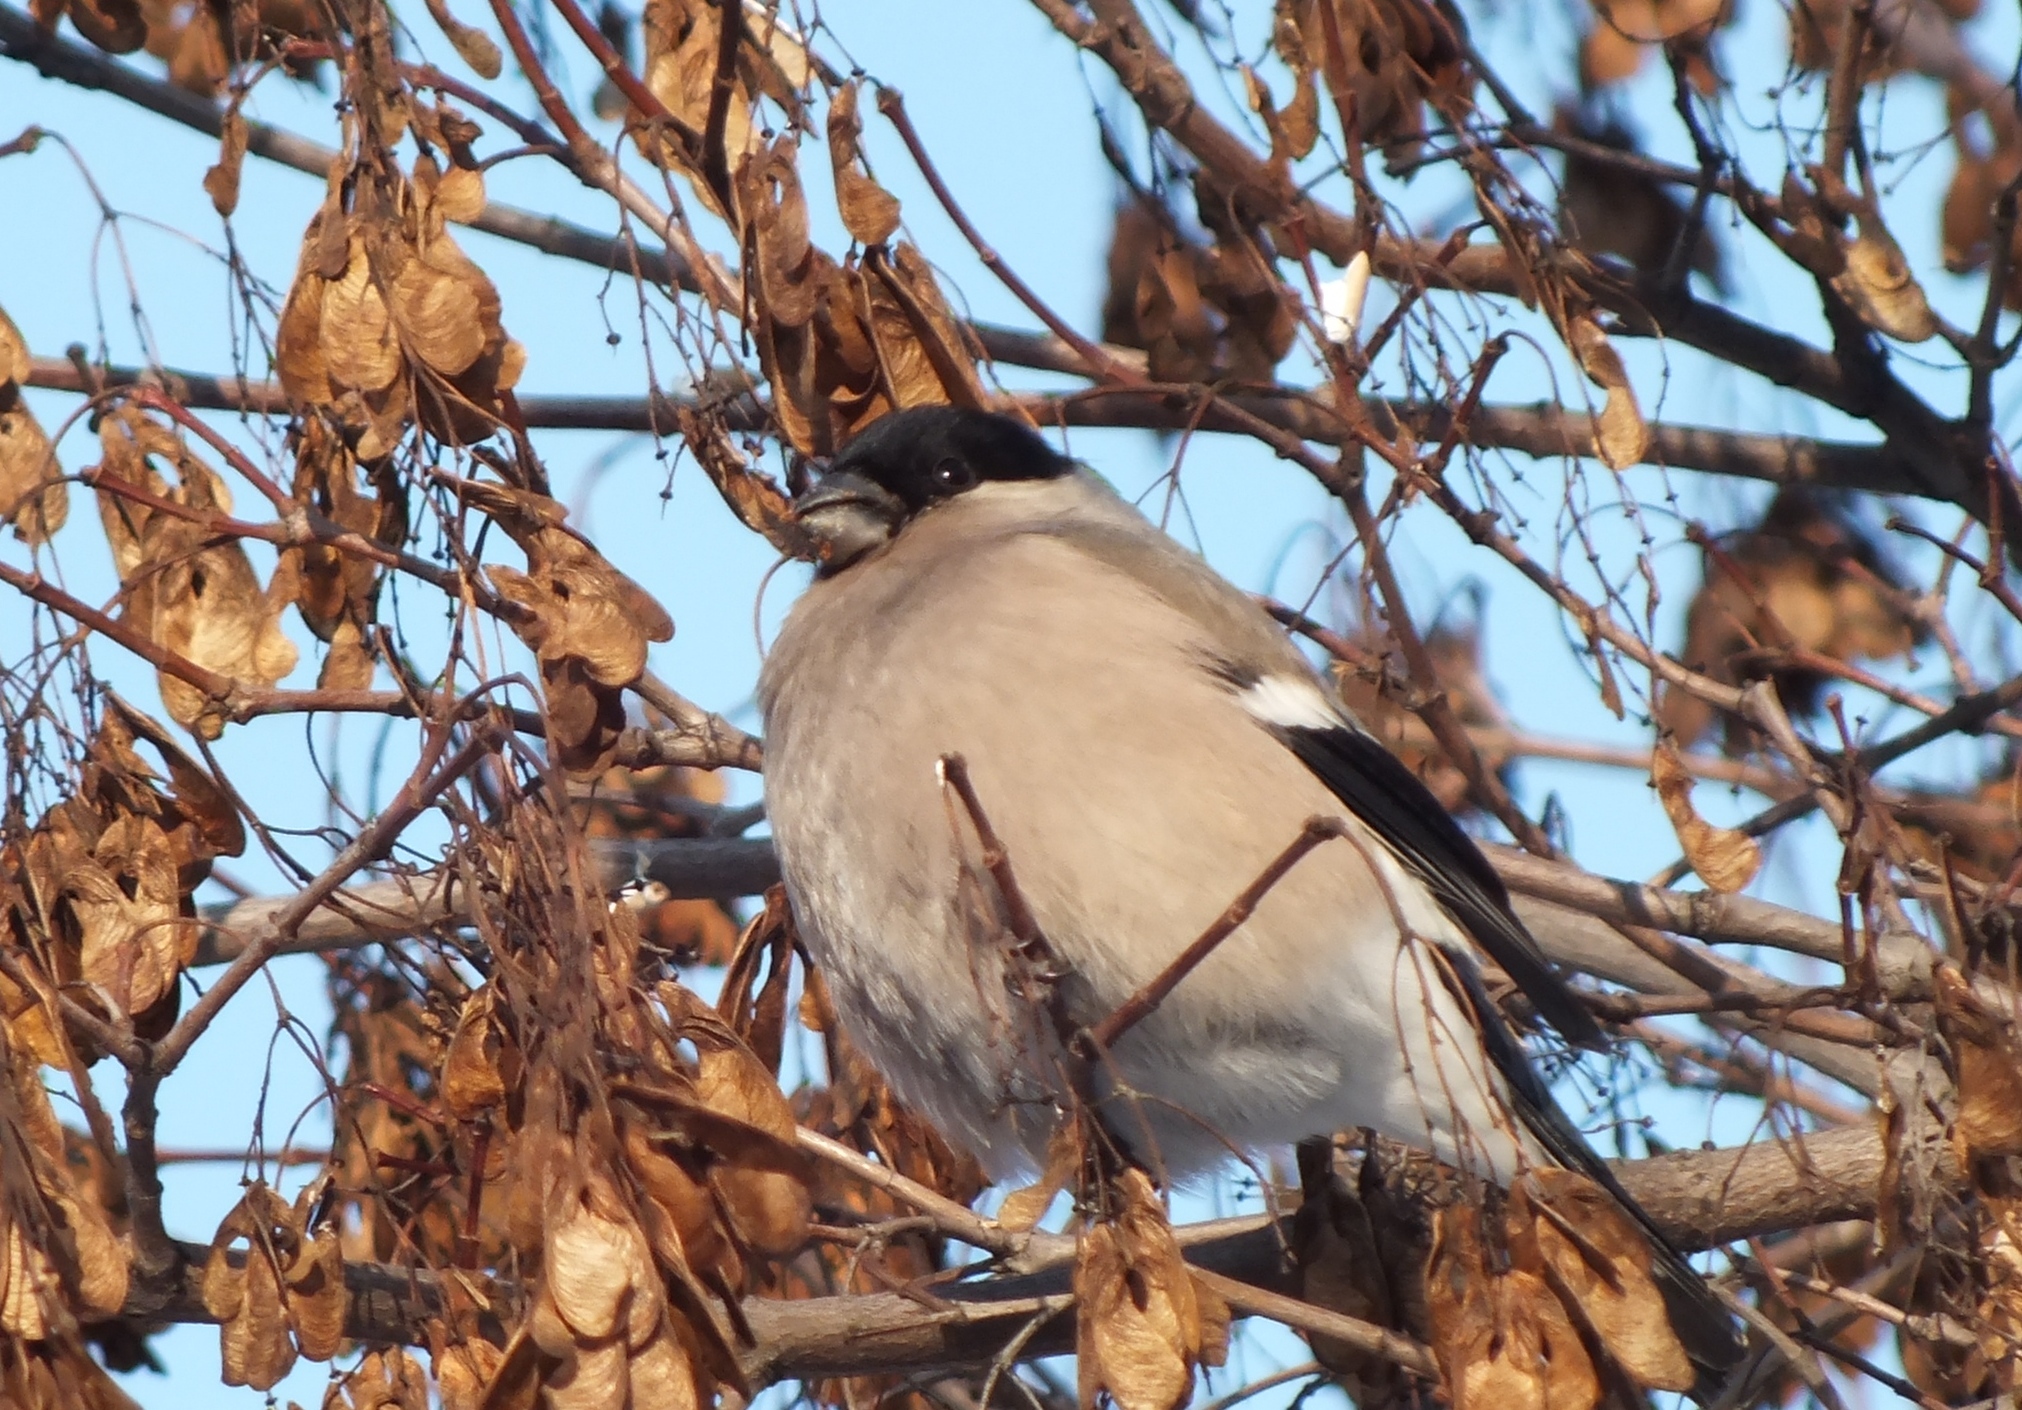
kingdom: Animalia
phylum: Chordata
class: Aves
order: Passeriformes
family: Fringillidae
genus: Pyrrhula
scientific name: Pyrrhula pyrrhula
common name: Eurasian bullfinch
